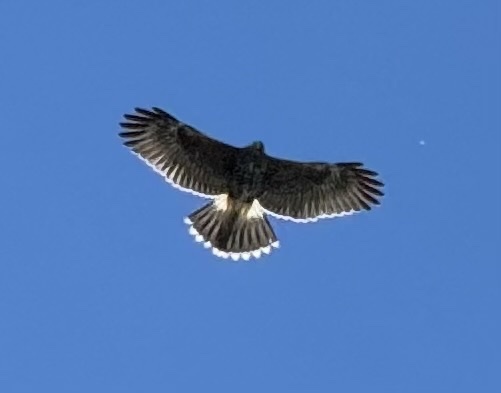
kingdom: Animalia
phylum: Chordata
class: Aves
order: Accipitriformes
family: Accipitridae
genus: Parabuteo
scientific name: Parabuteo unicinctus
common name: Harris's hawk
